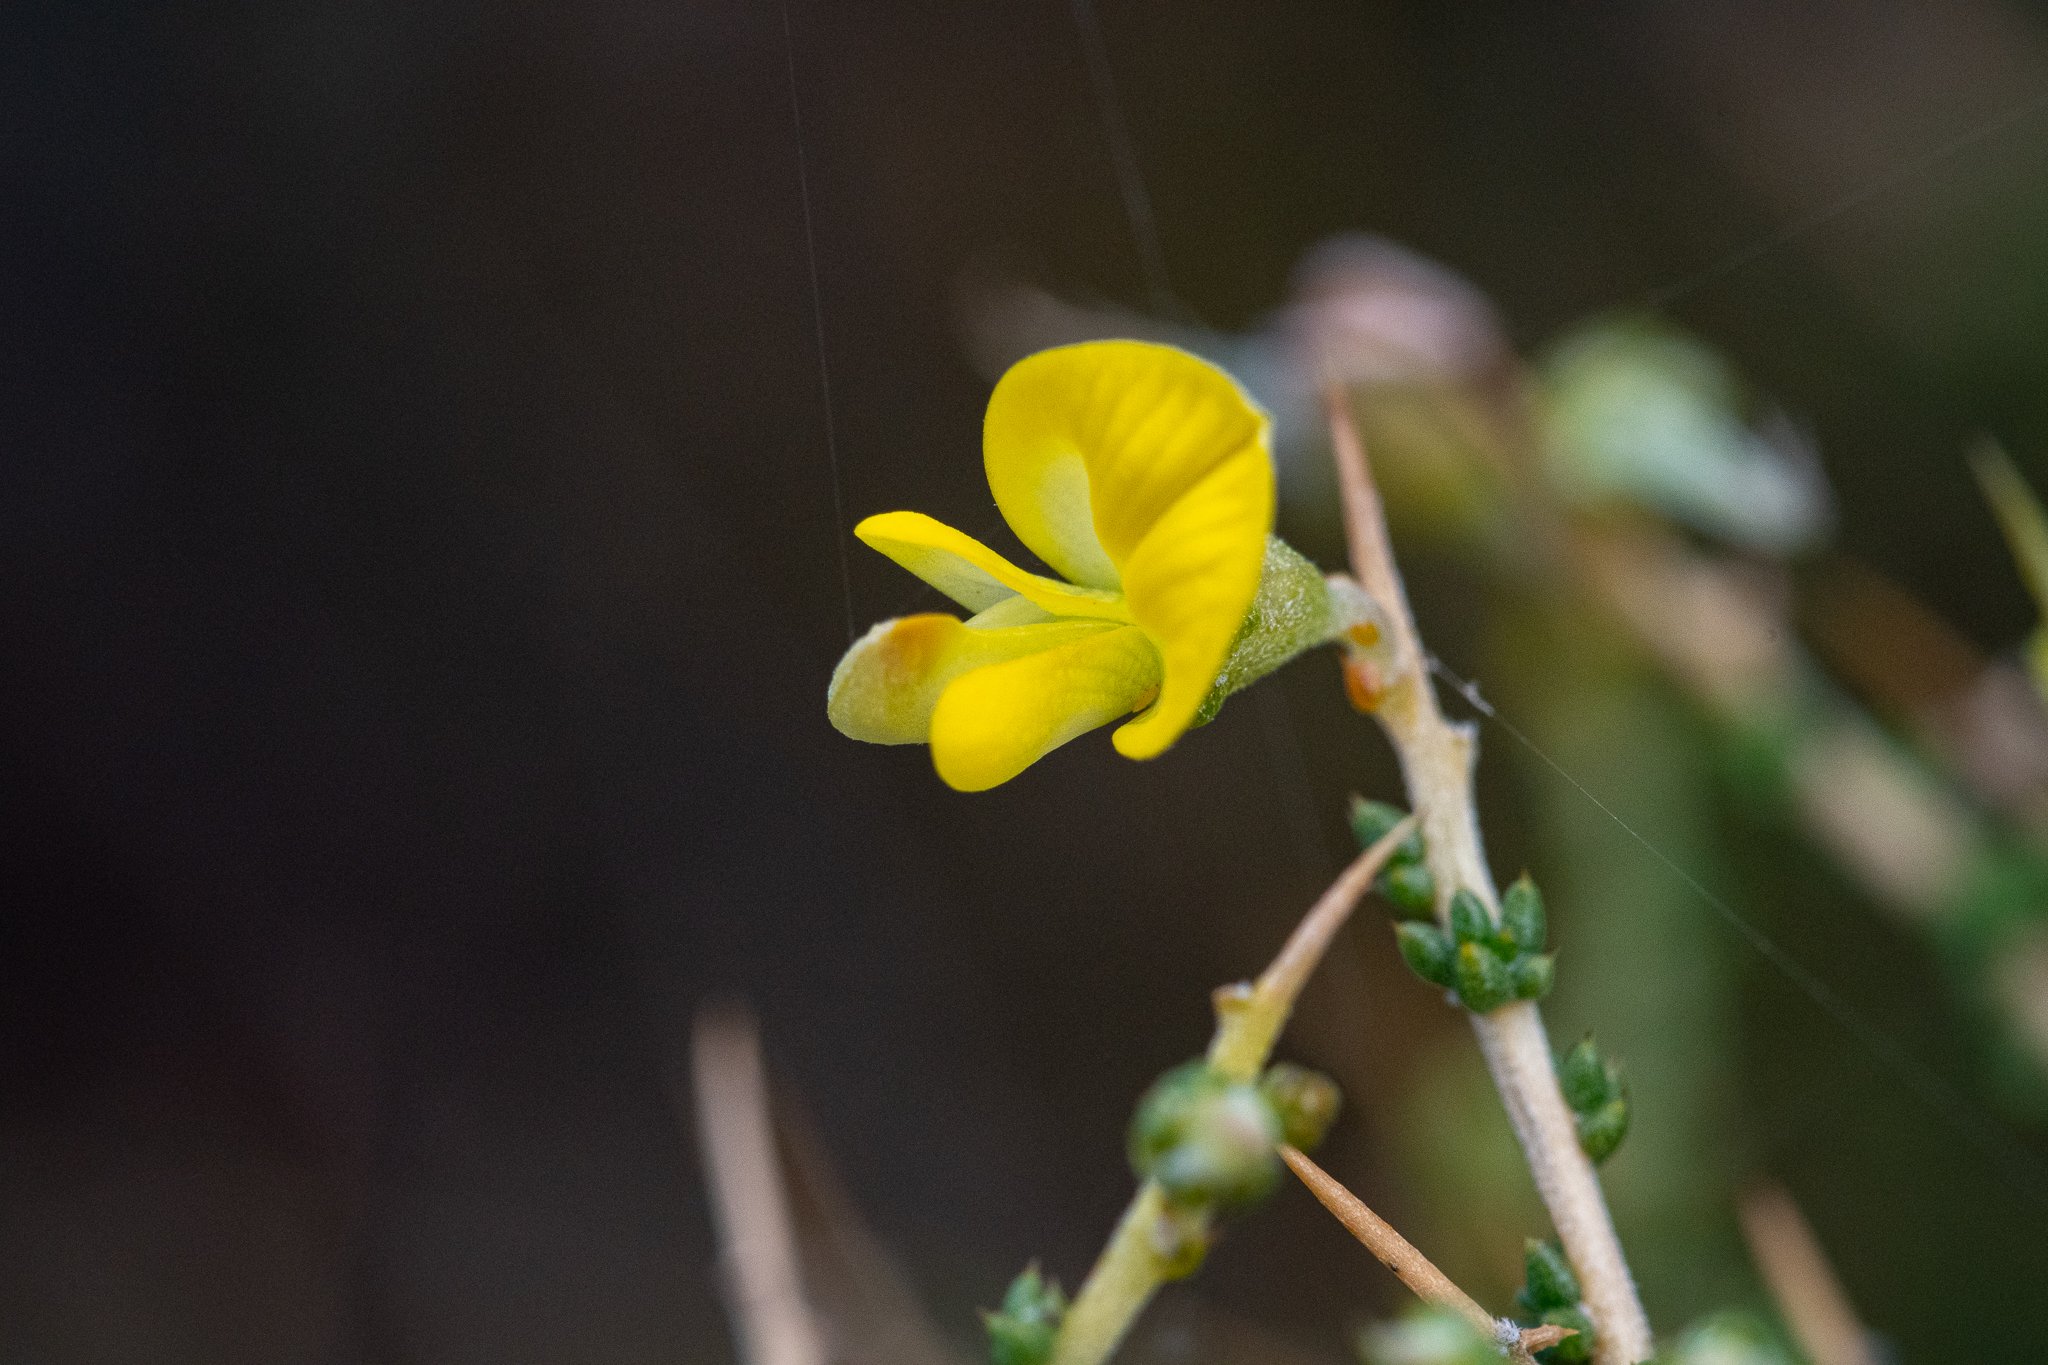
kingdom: Plantae
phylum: Tracheophyta
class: Magnoliopsida
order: Fabales
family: Fabaceae
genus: Aspalathus
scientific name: Aspalathus acuminata
